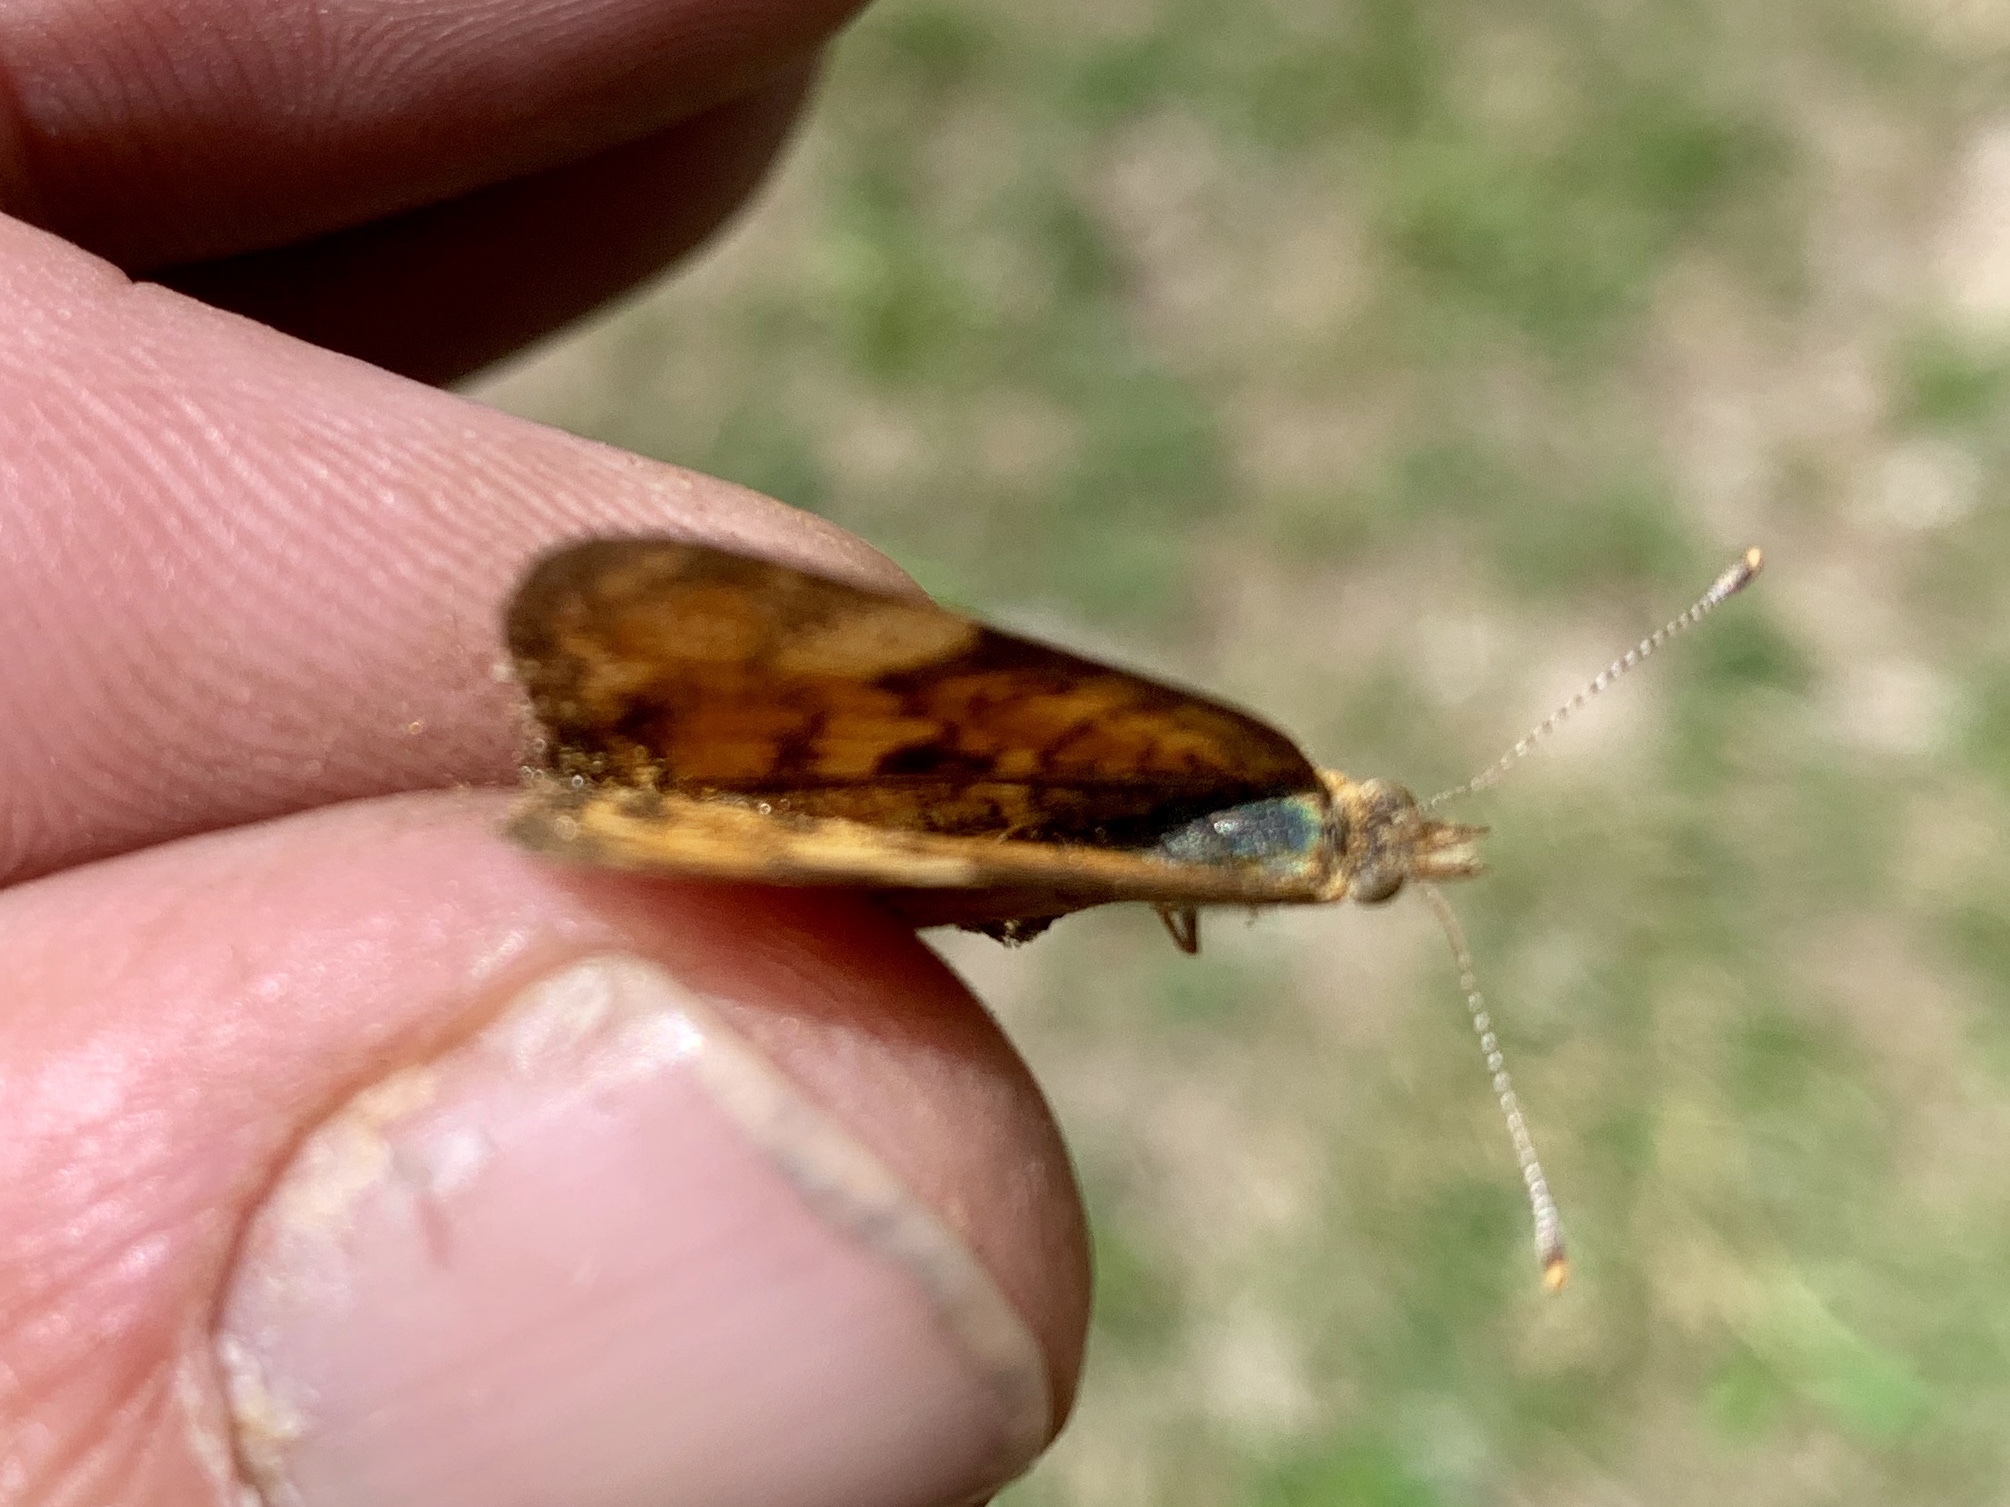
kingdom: Animalia
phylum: Arthropoda
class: Insecta
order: Lepidoptera
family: Nymphalidae
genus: Eresia
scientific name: Eresia aveyrona
